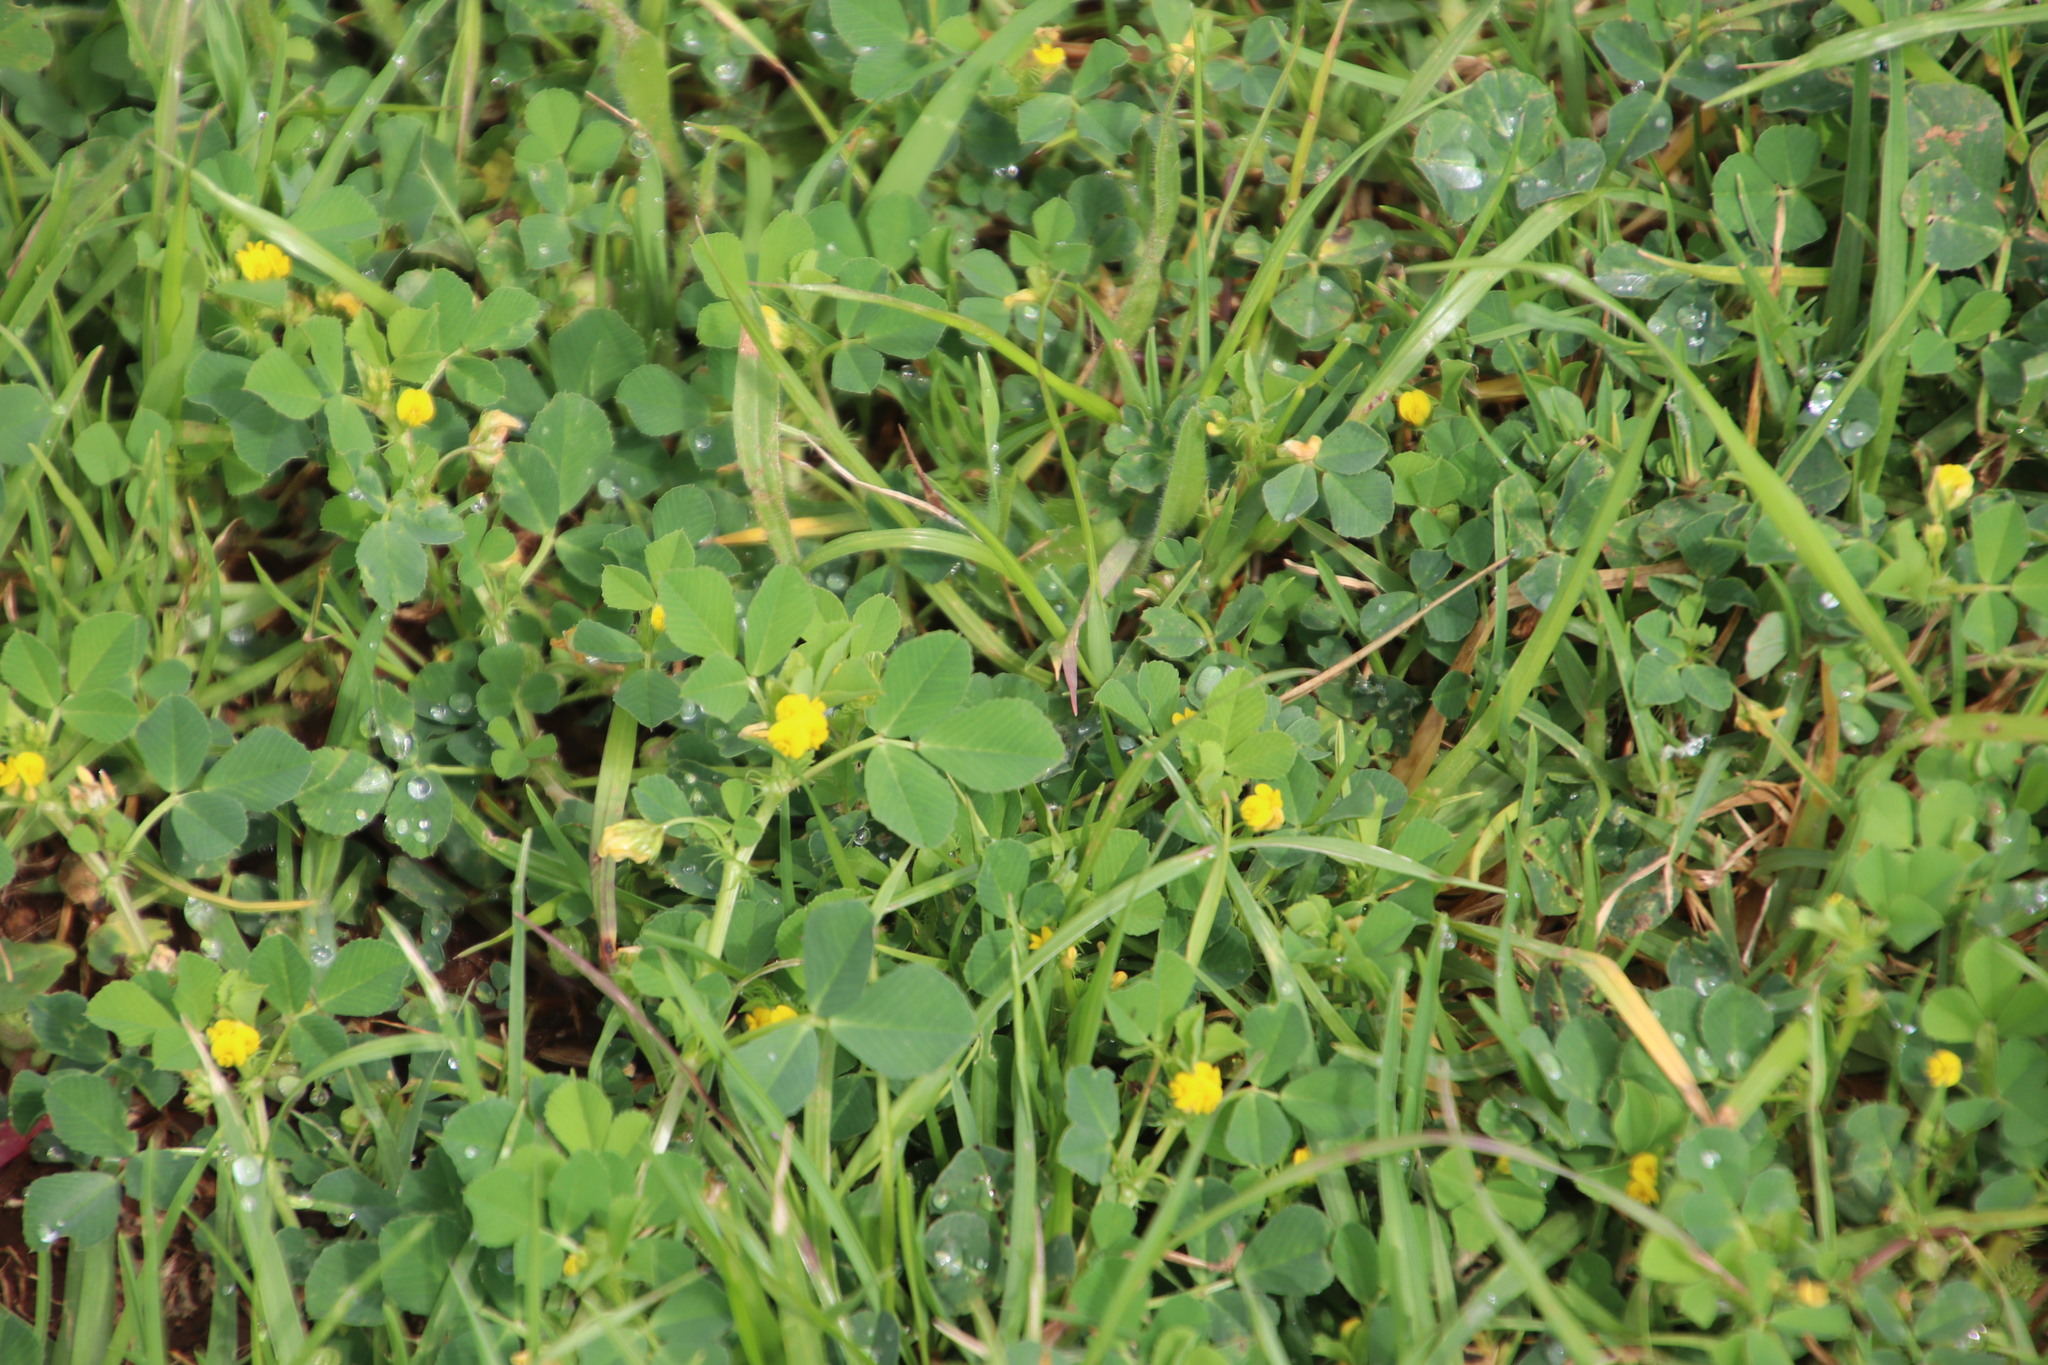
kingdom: Plantae
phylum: Tracheophyta
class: Magnoliopsida
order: Fabales
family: Fabaceae
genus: Medicago
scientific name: Medicago polymorpha
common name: Burclover
